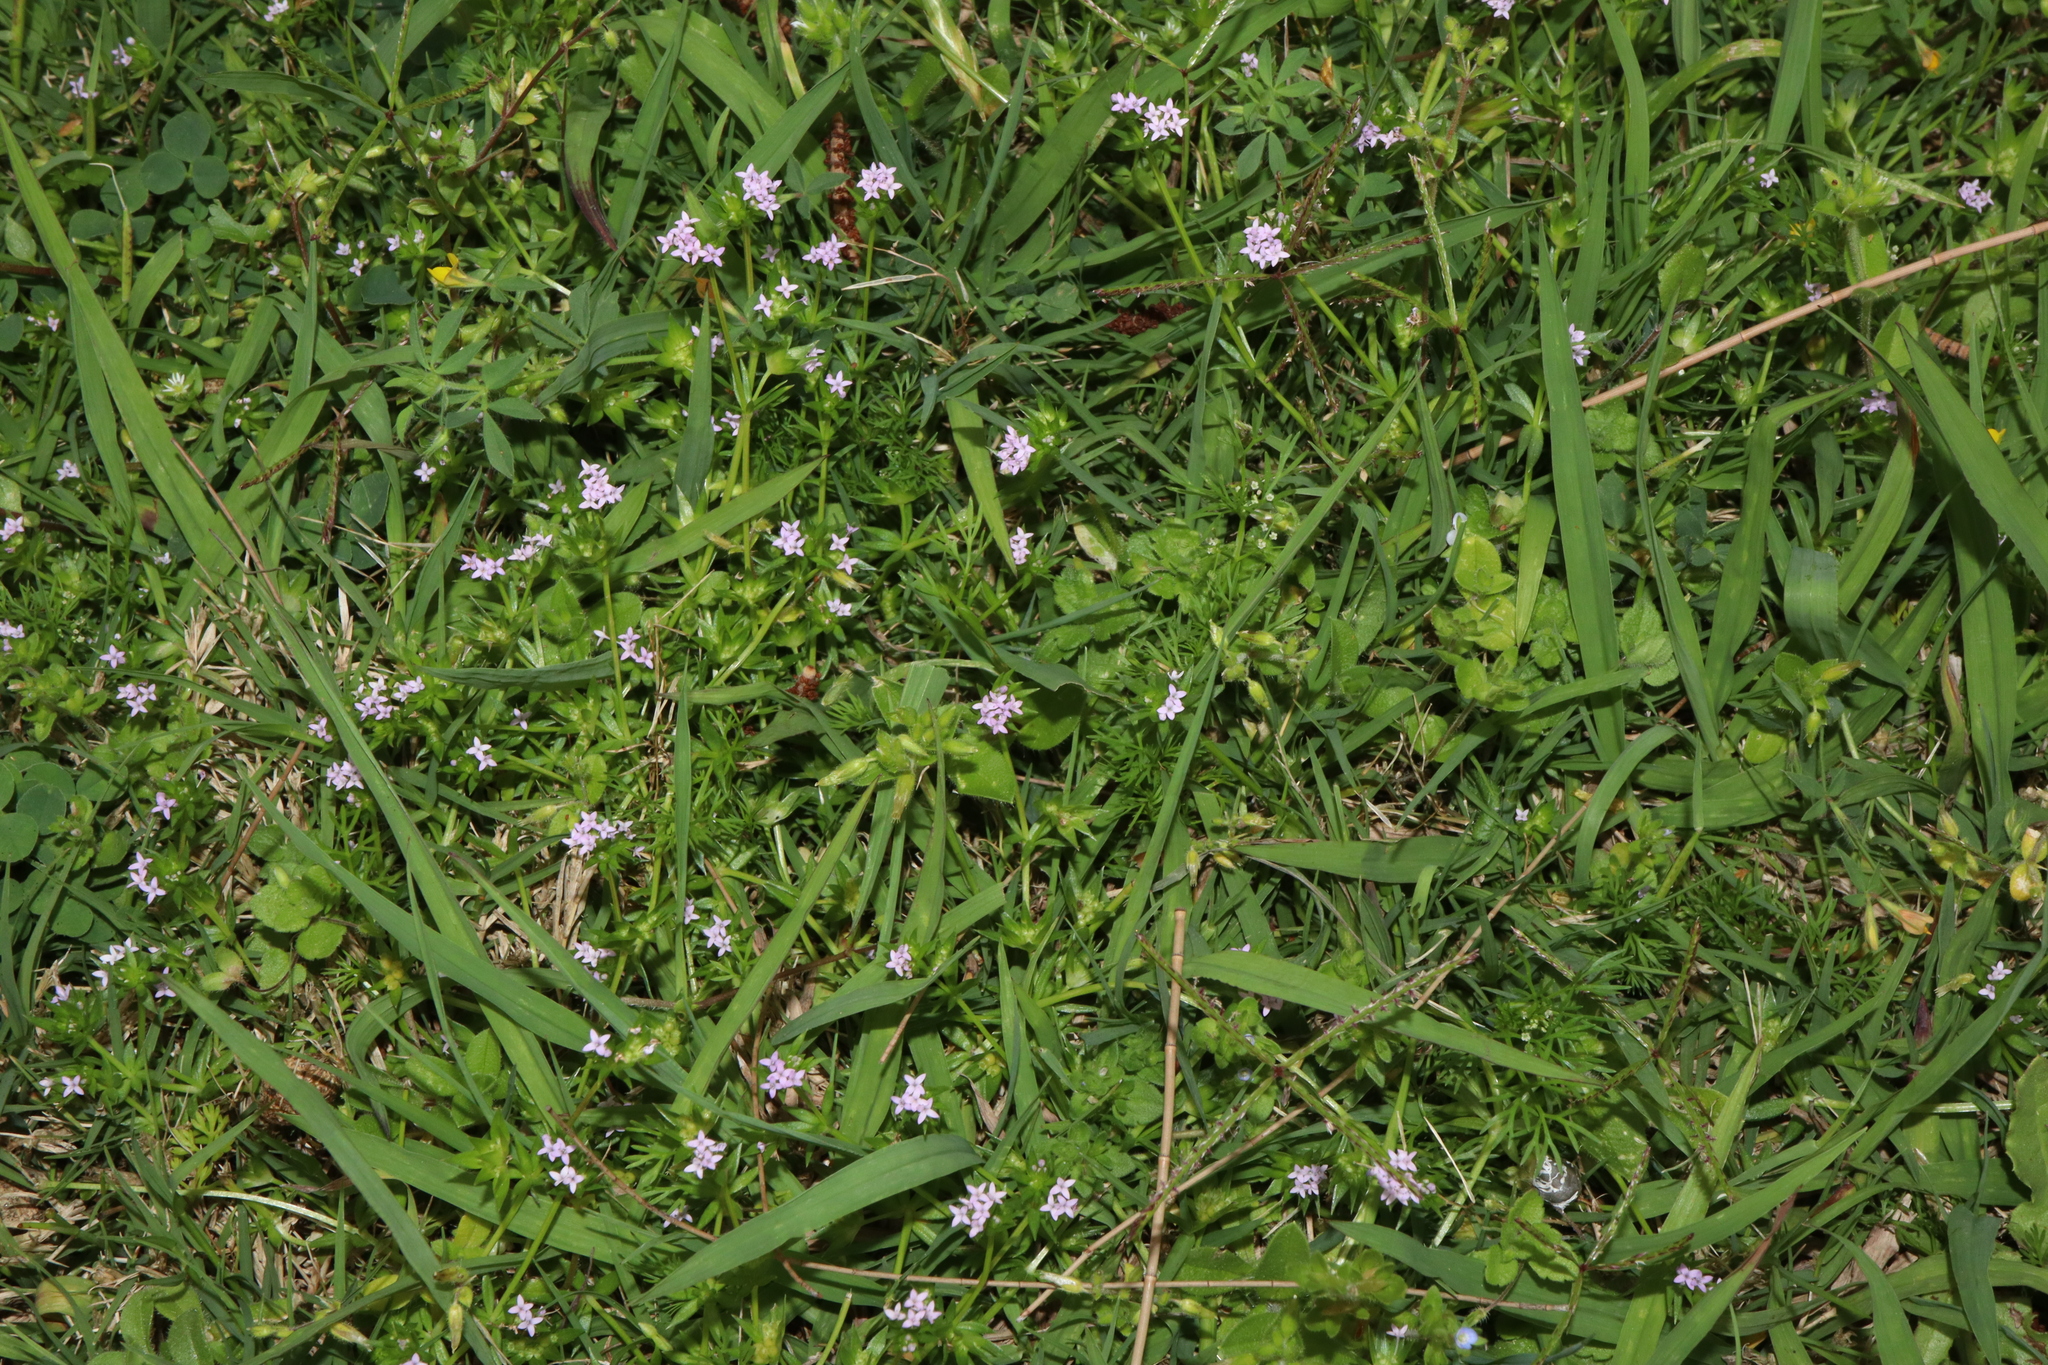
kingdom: Plantae
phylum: Tracheophyta
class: Magnoliopsida
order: Gentianales
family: Rubiaceae
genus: Sherardia
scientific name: Sherardia arvensis
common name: Field madder
